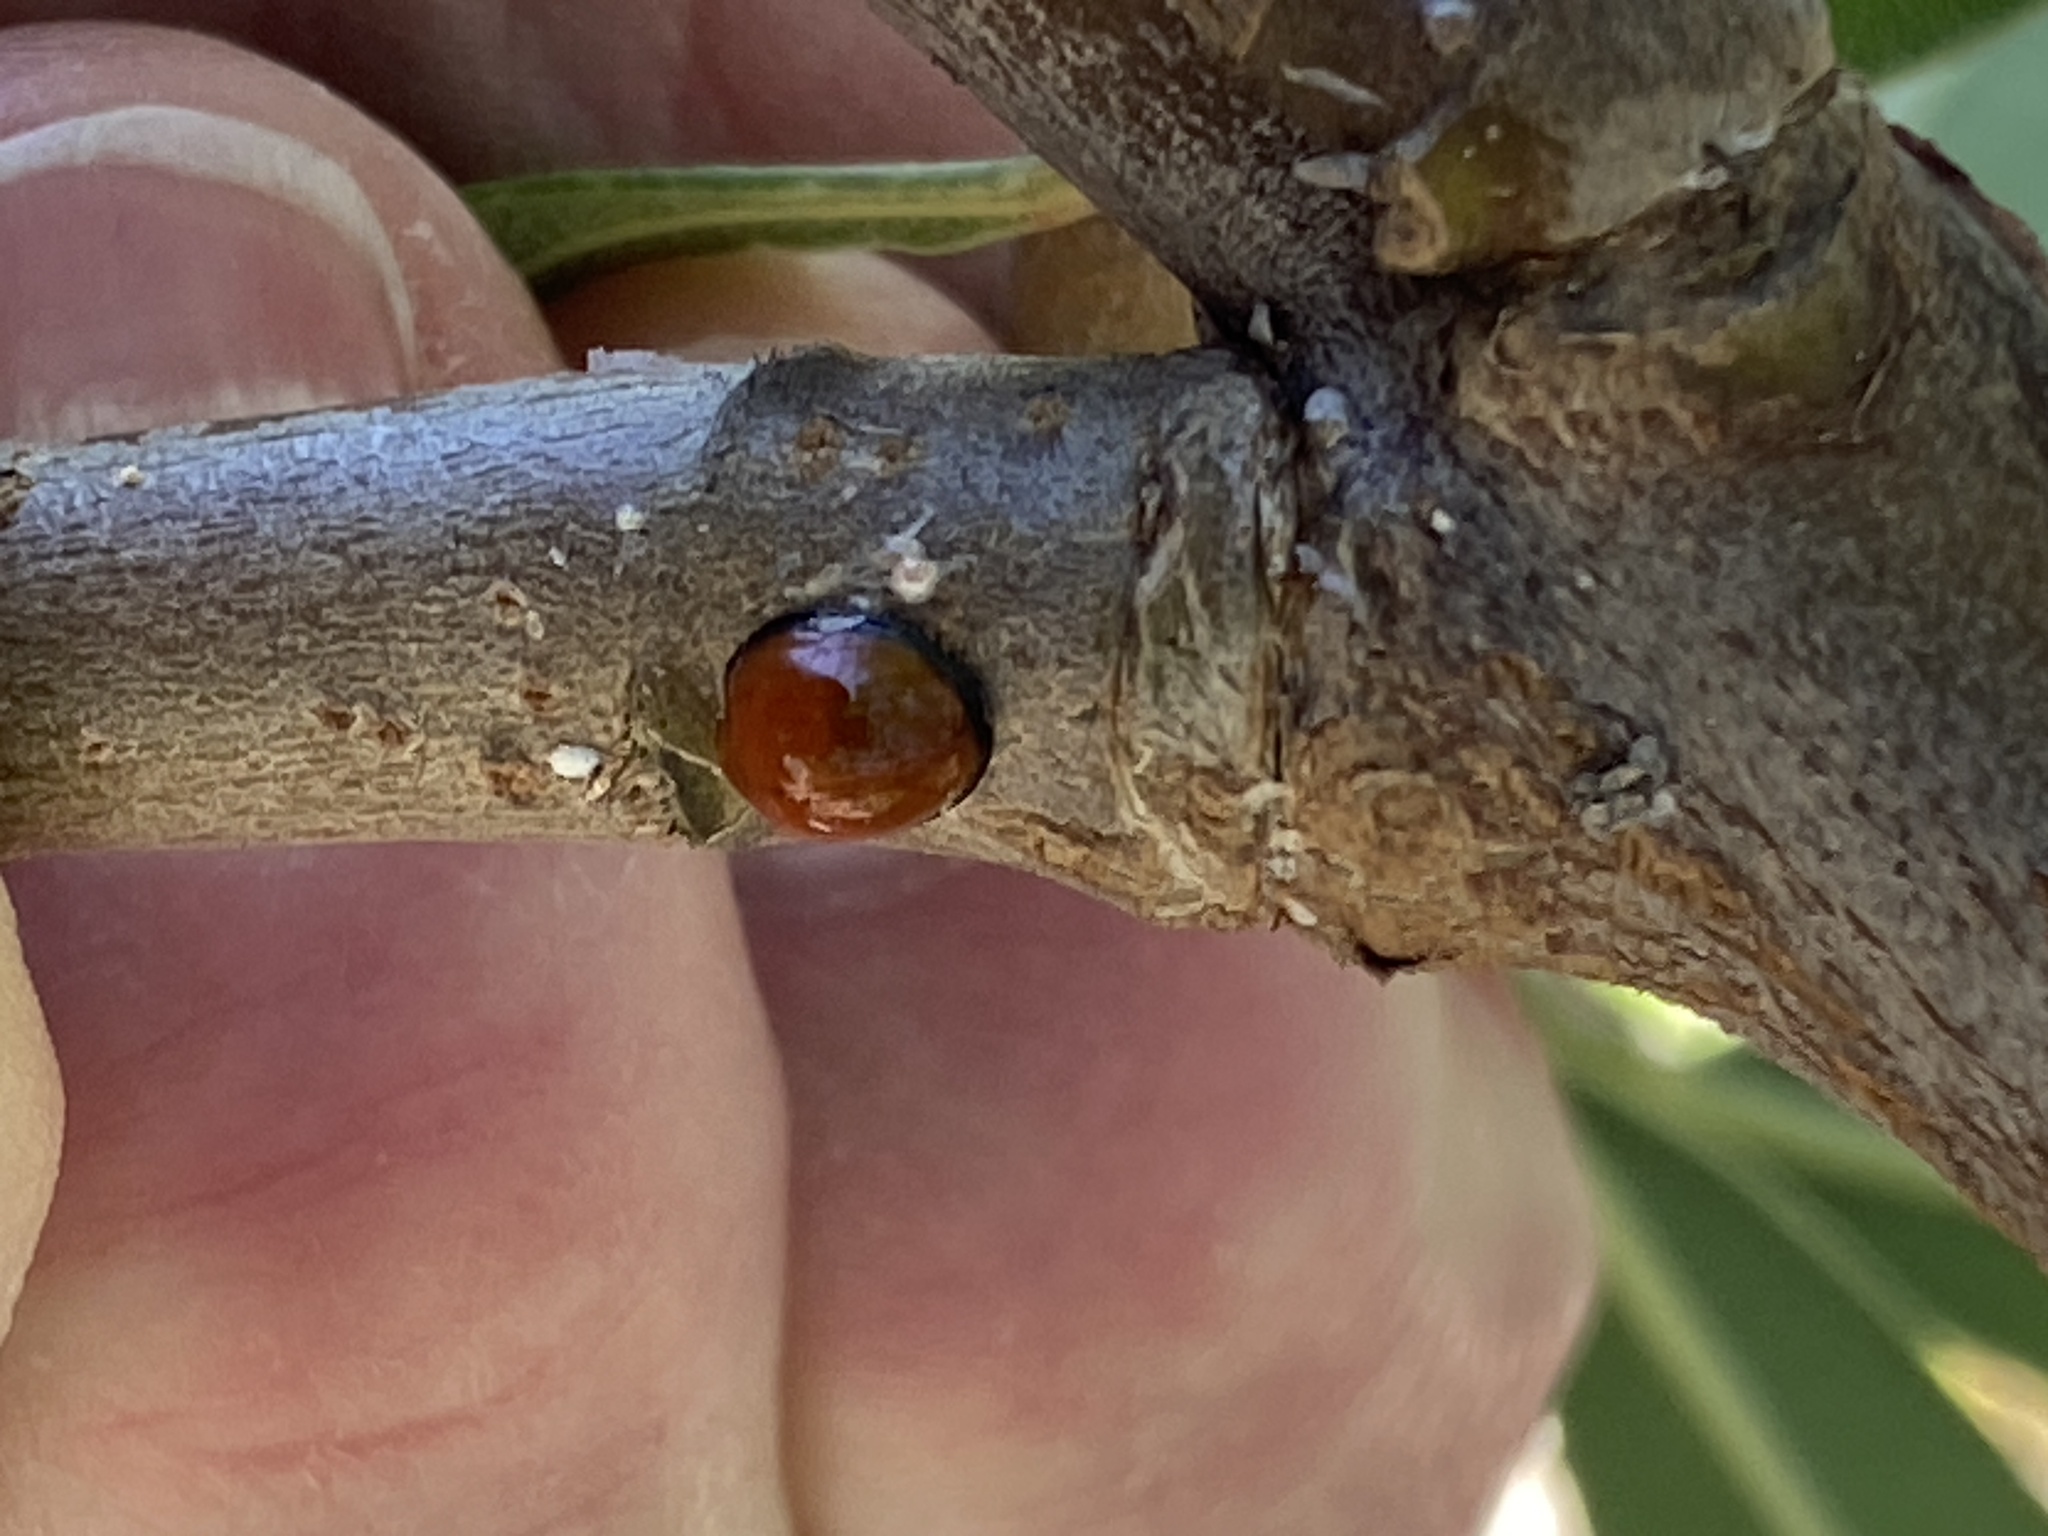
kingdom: Animalia
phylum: Arthropoda
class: Insecta
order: Coleoptera
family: Coccinellidae
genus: Chilocorus
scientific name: Chilocorus circumdatus
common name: Lady beetle
